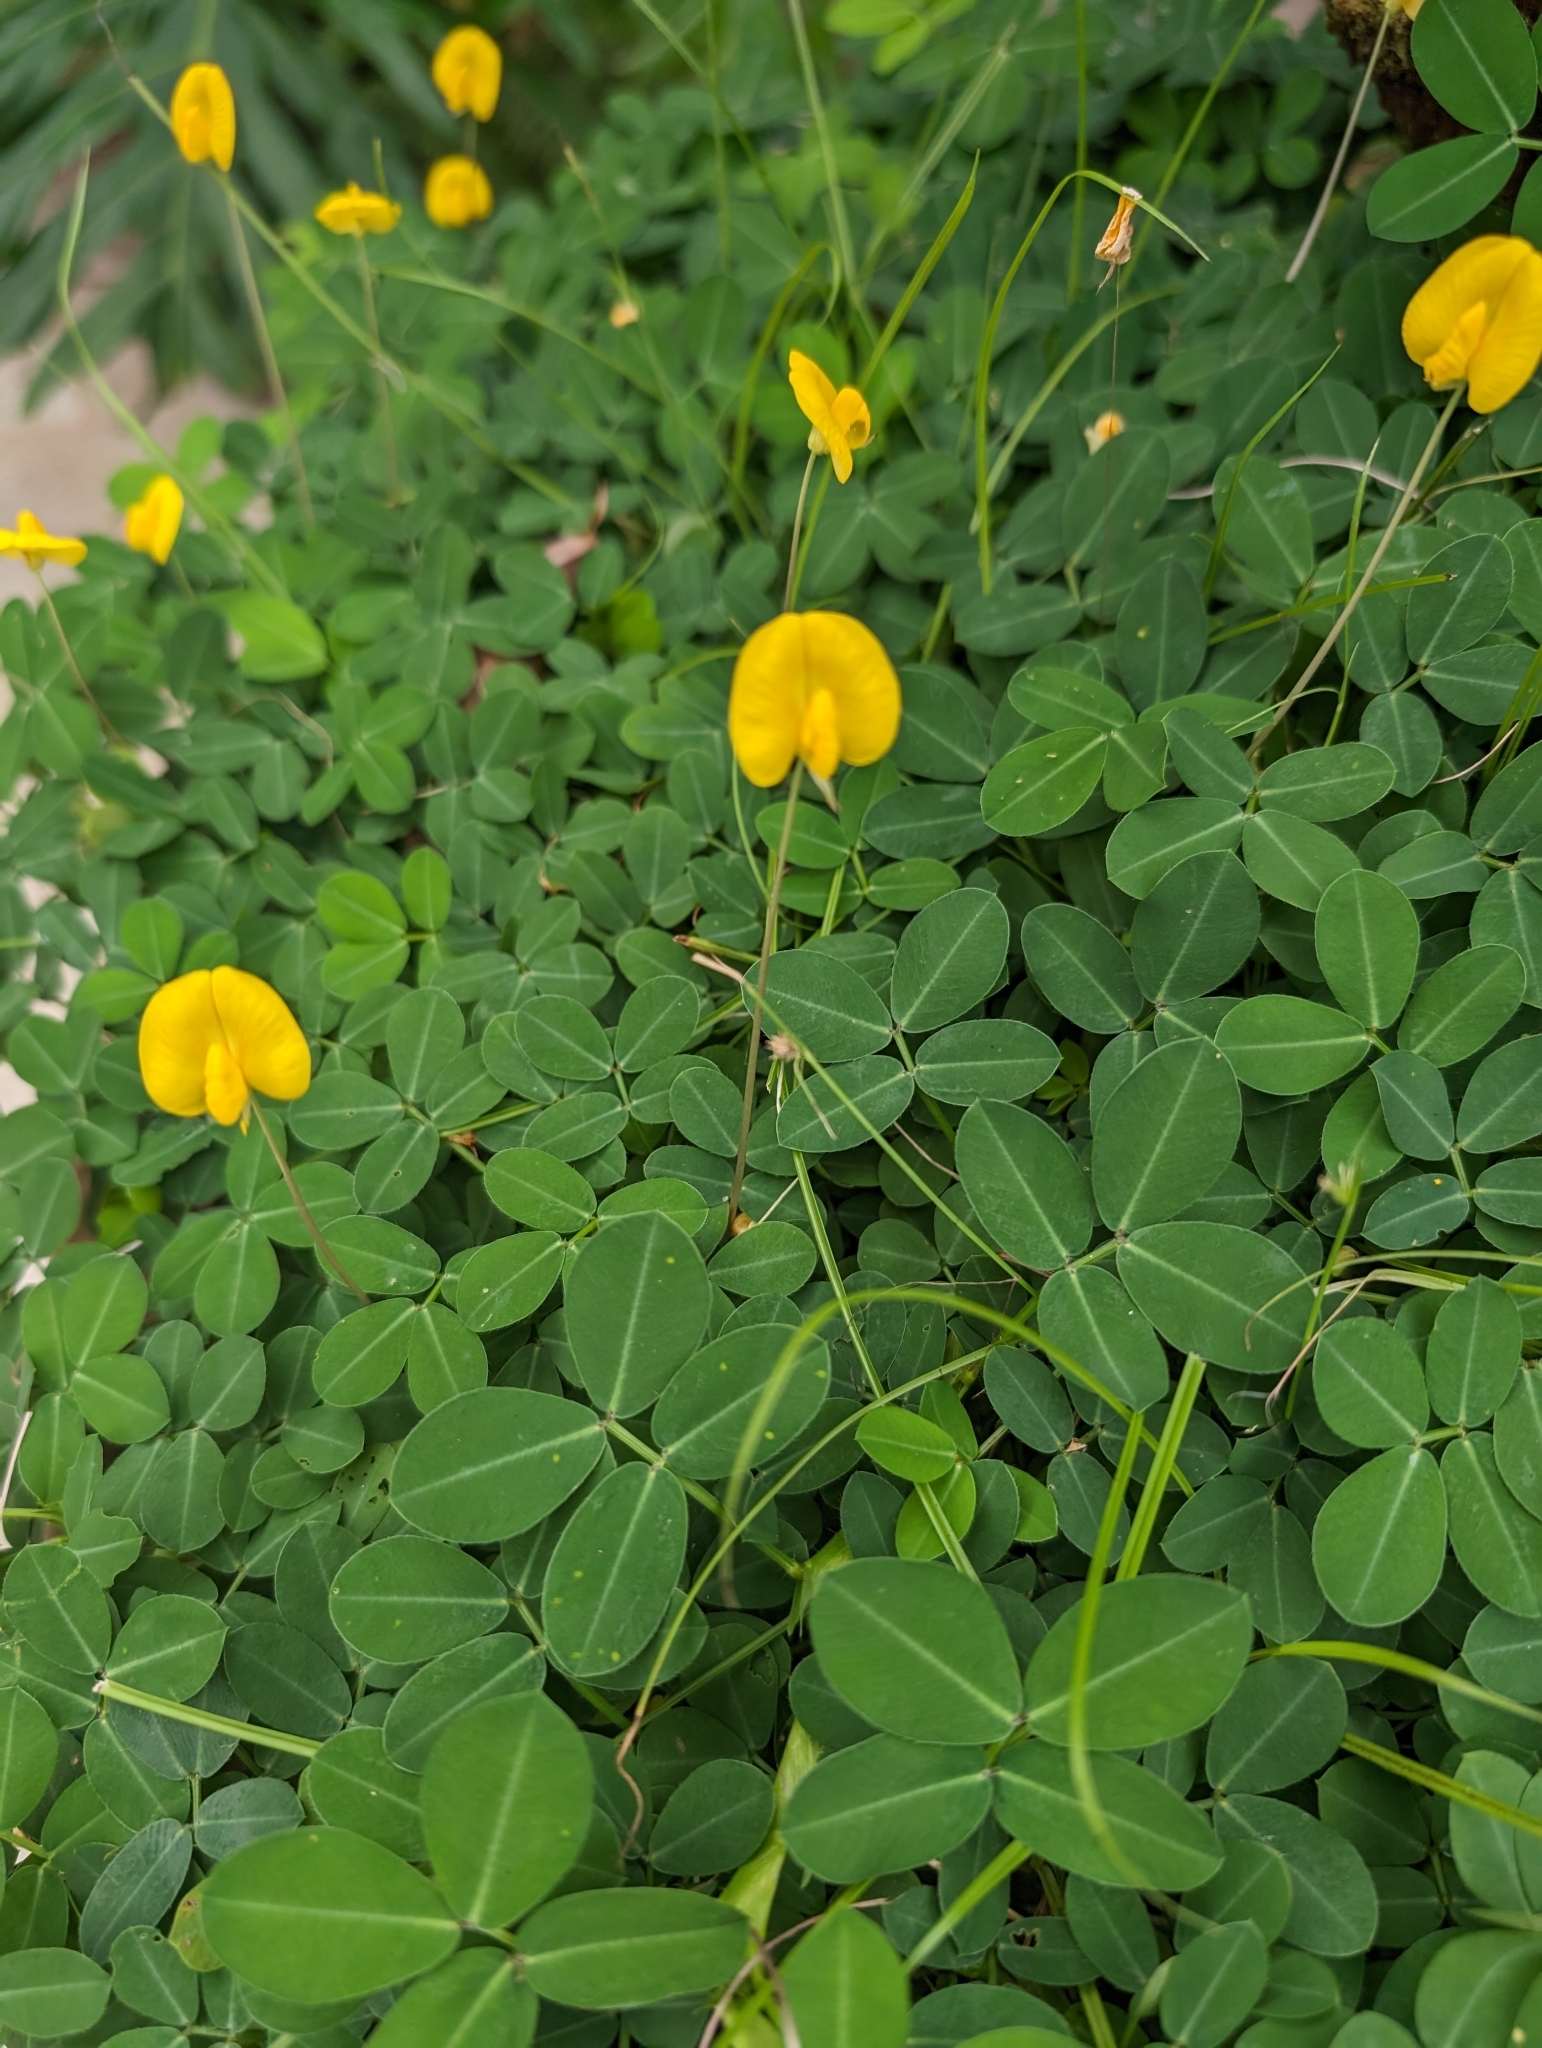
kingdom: Plantae
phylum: Tracheophyta
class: Magnoliopsida
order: Fabales
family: Fabaceae
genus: Arachis
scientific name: Arachis pintoi
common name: Pinto peanut
